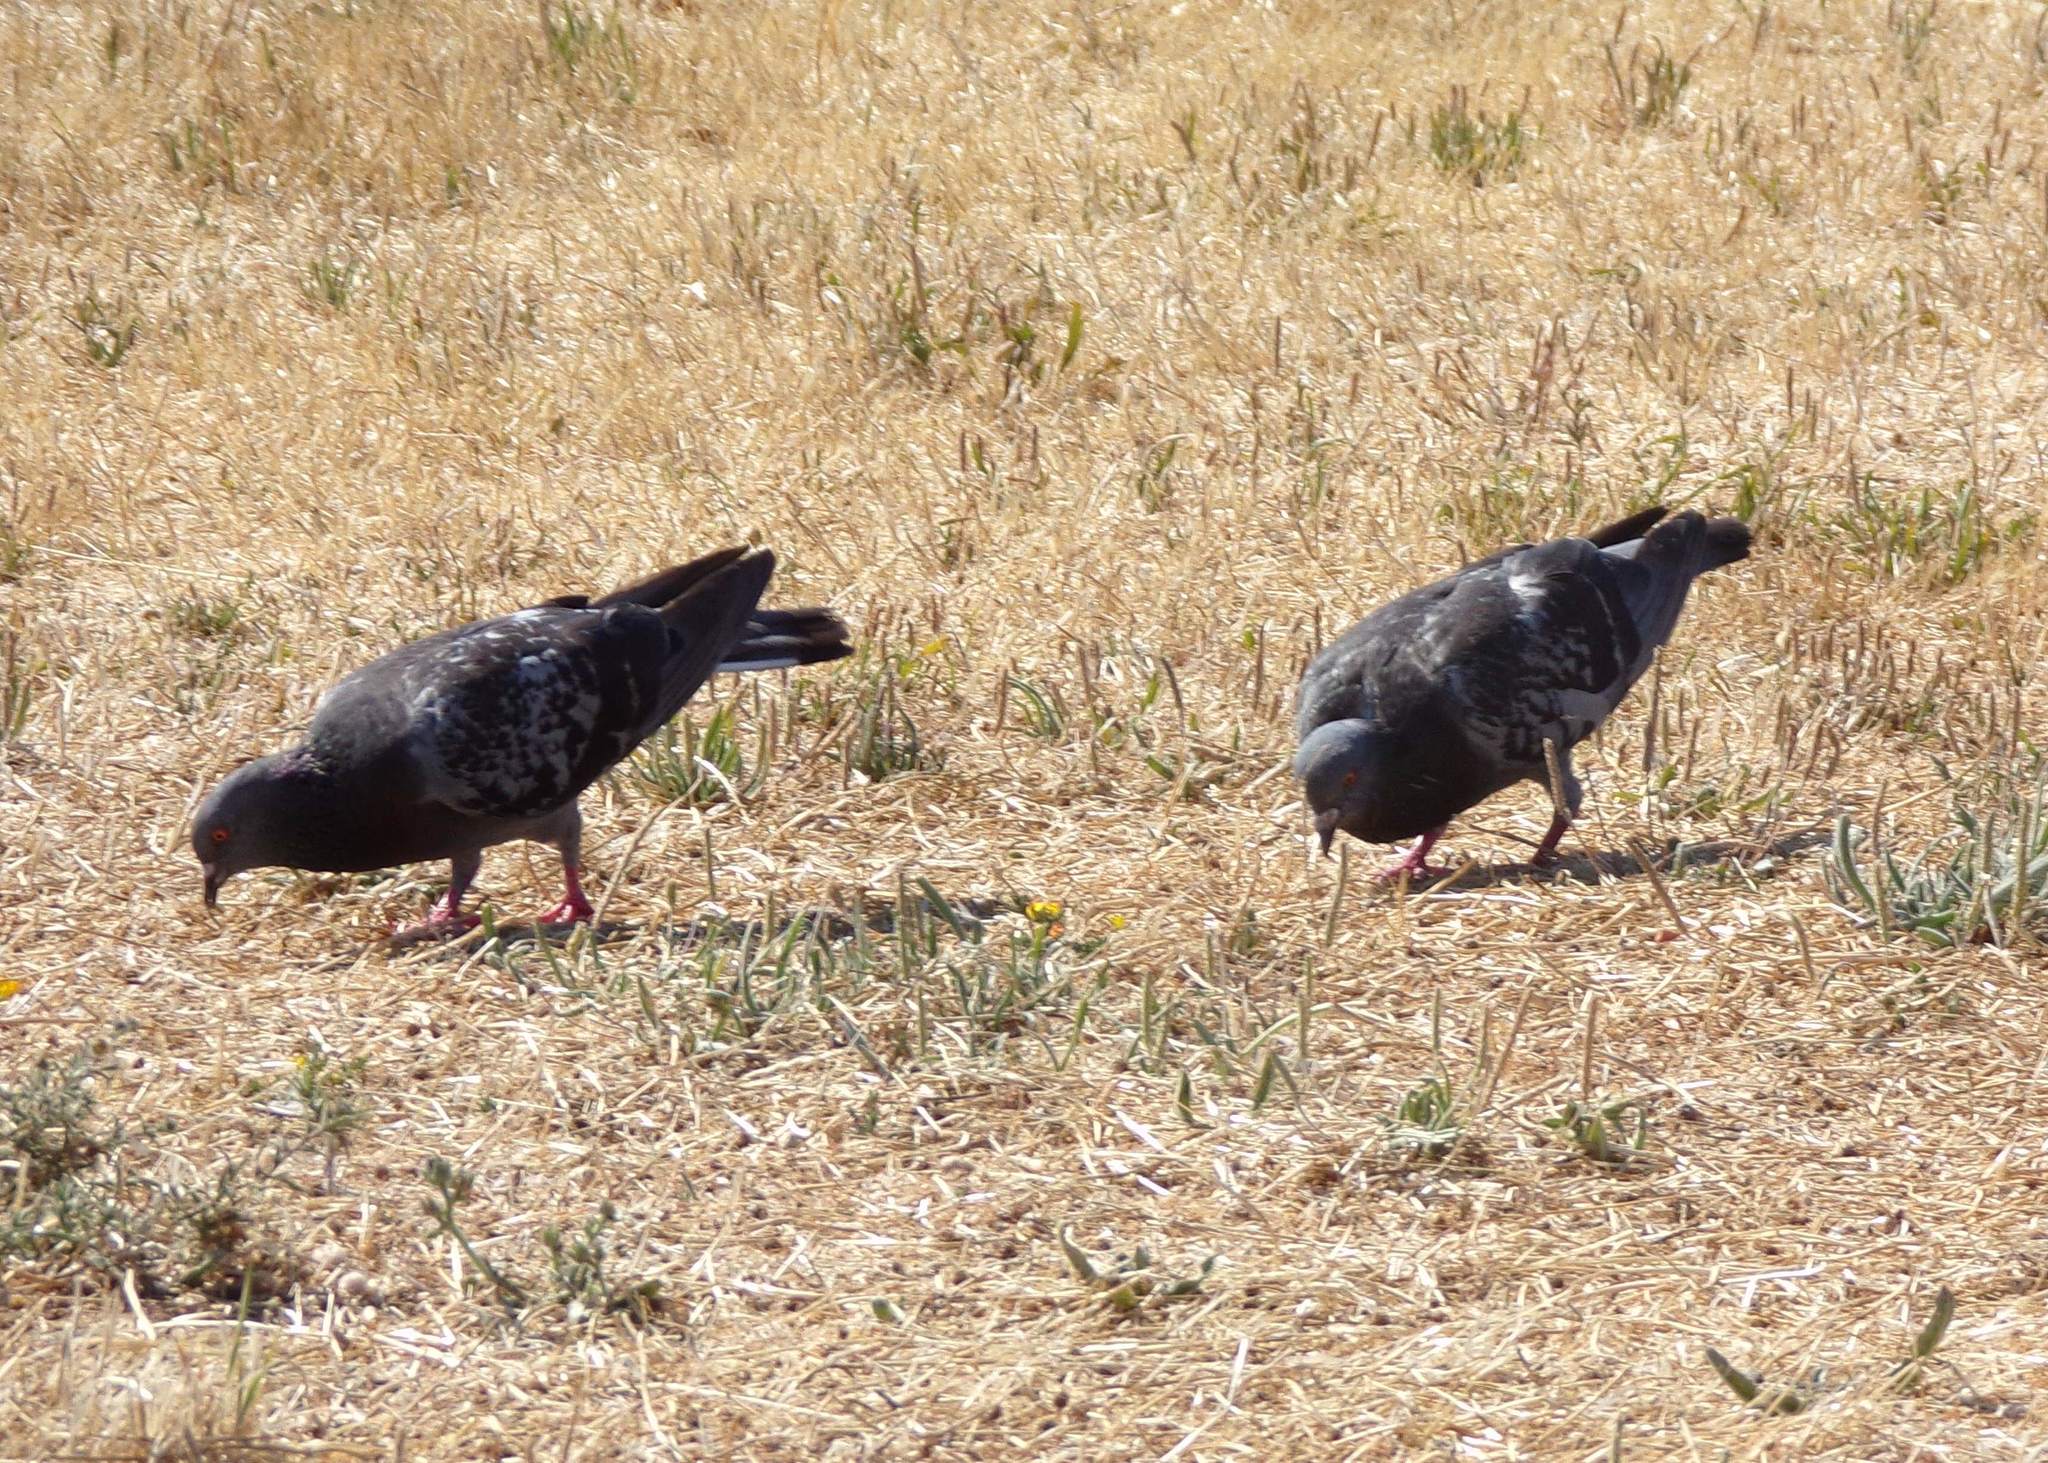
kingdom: Animalia
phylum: Chordata
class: Aves
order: Columbiformes
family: Columbidae
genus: Columba
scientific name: Columba livia
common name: Rock pigeon
